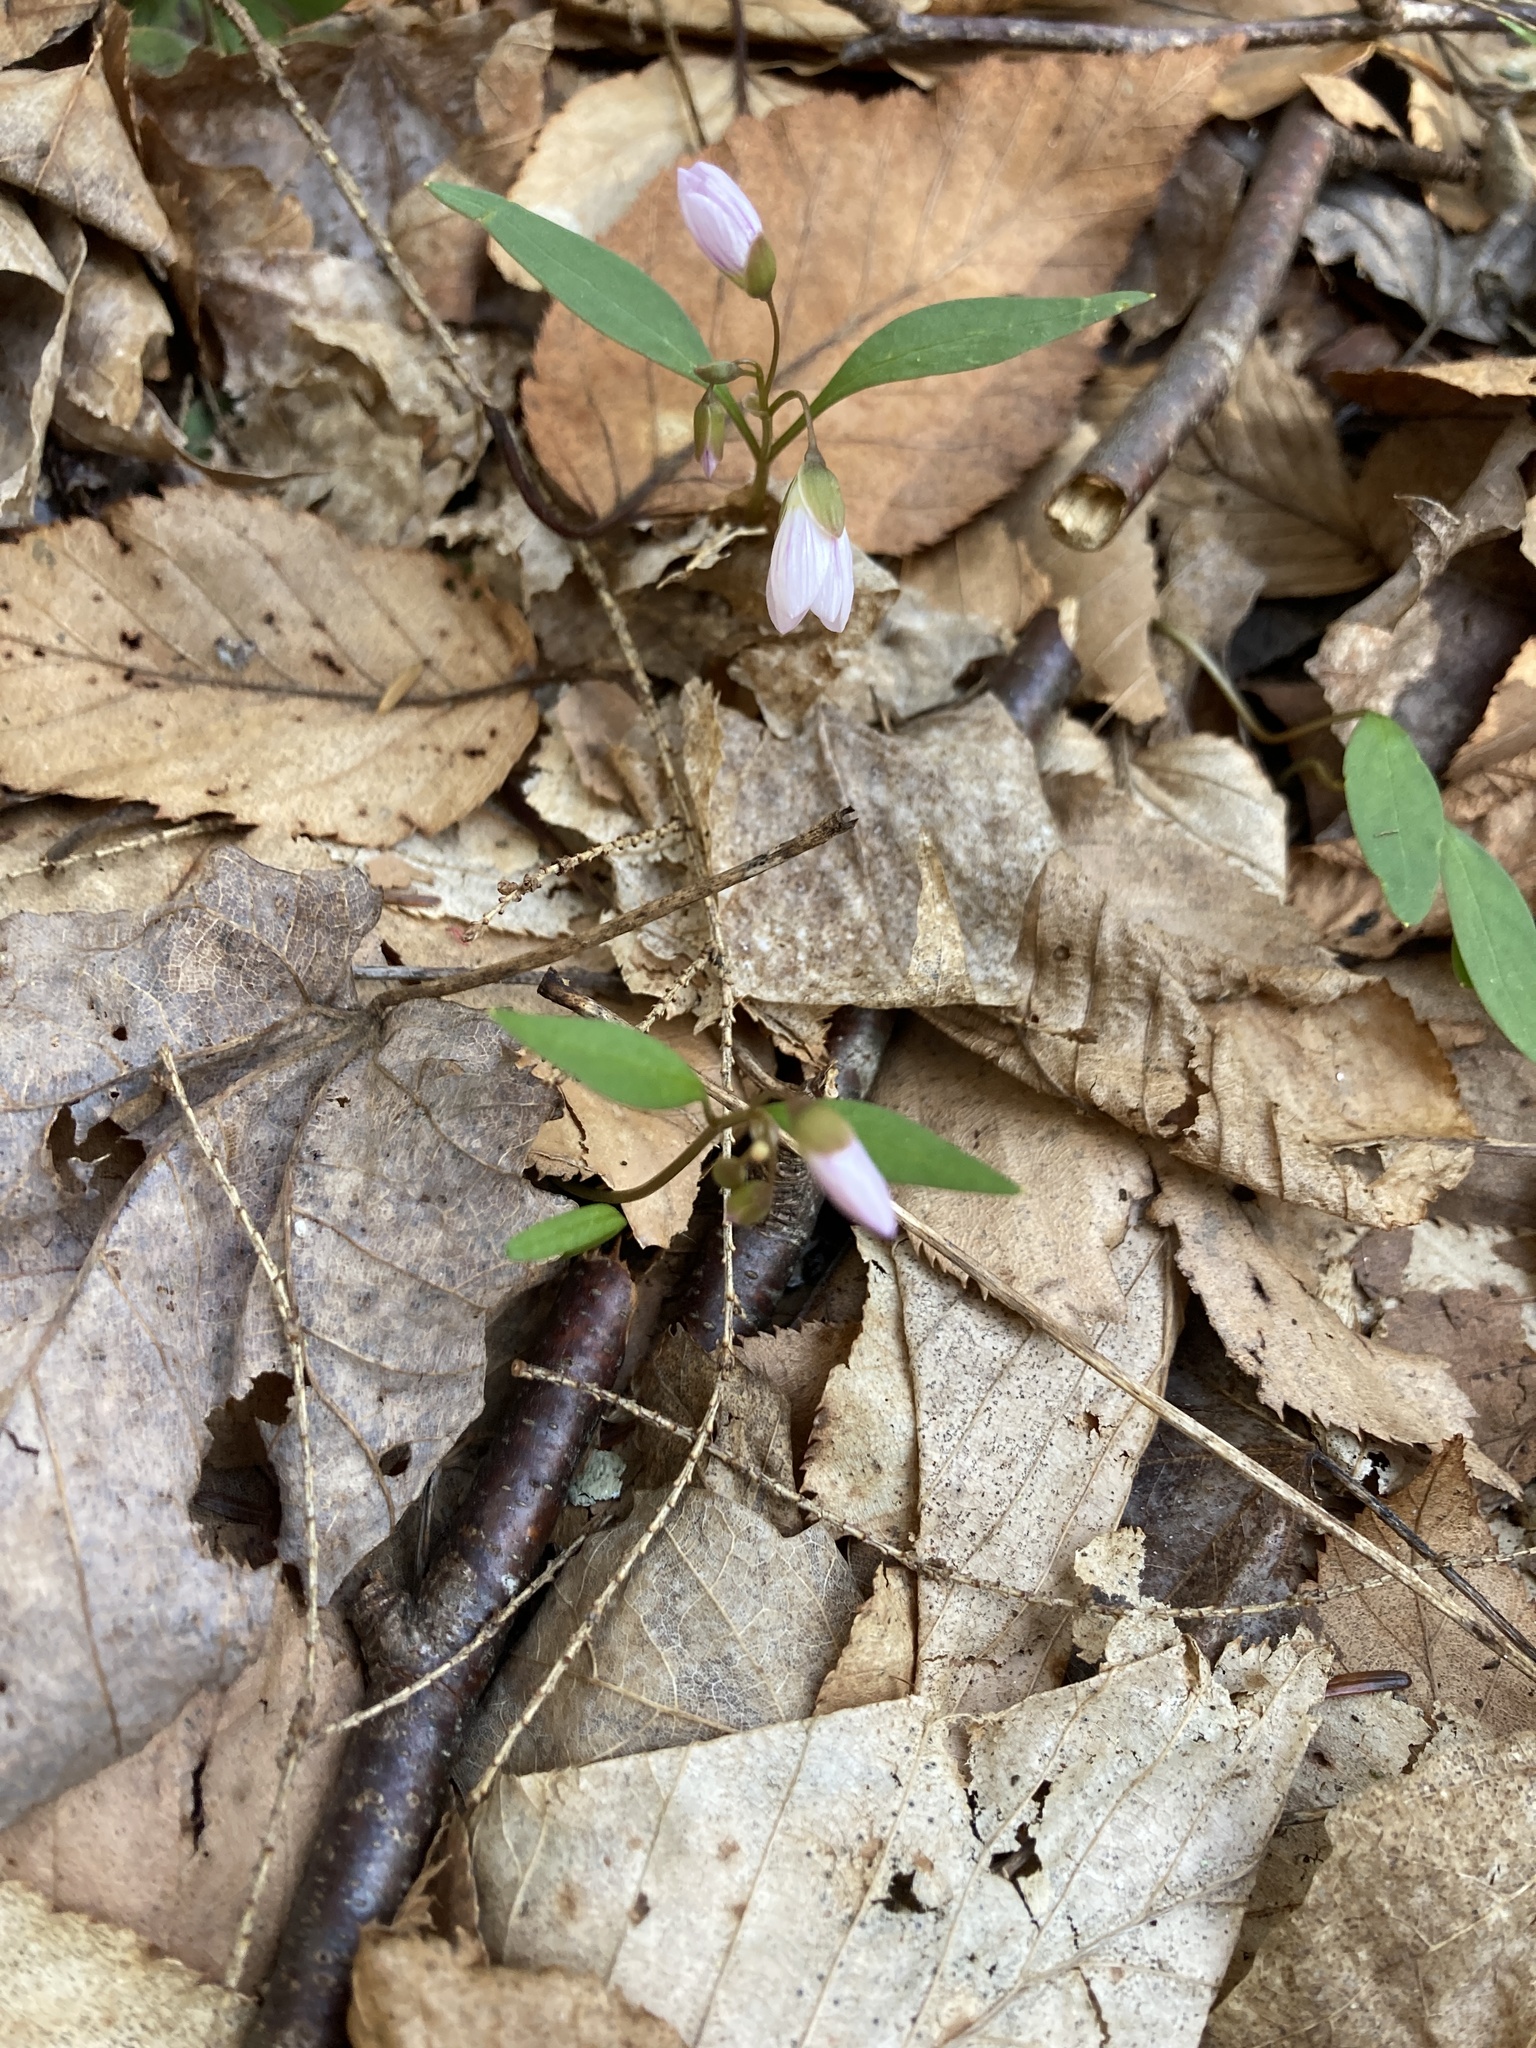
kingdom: Plantae
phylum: Tracheophyta
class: Magnoliopsida
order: Caryophyllales
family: Montiaceae
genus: Claytonia
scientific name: Claytonia caroliniana
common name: Carolina spring beauty
